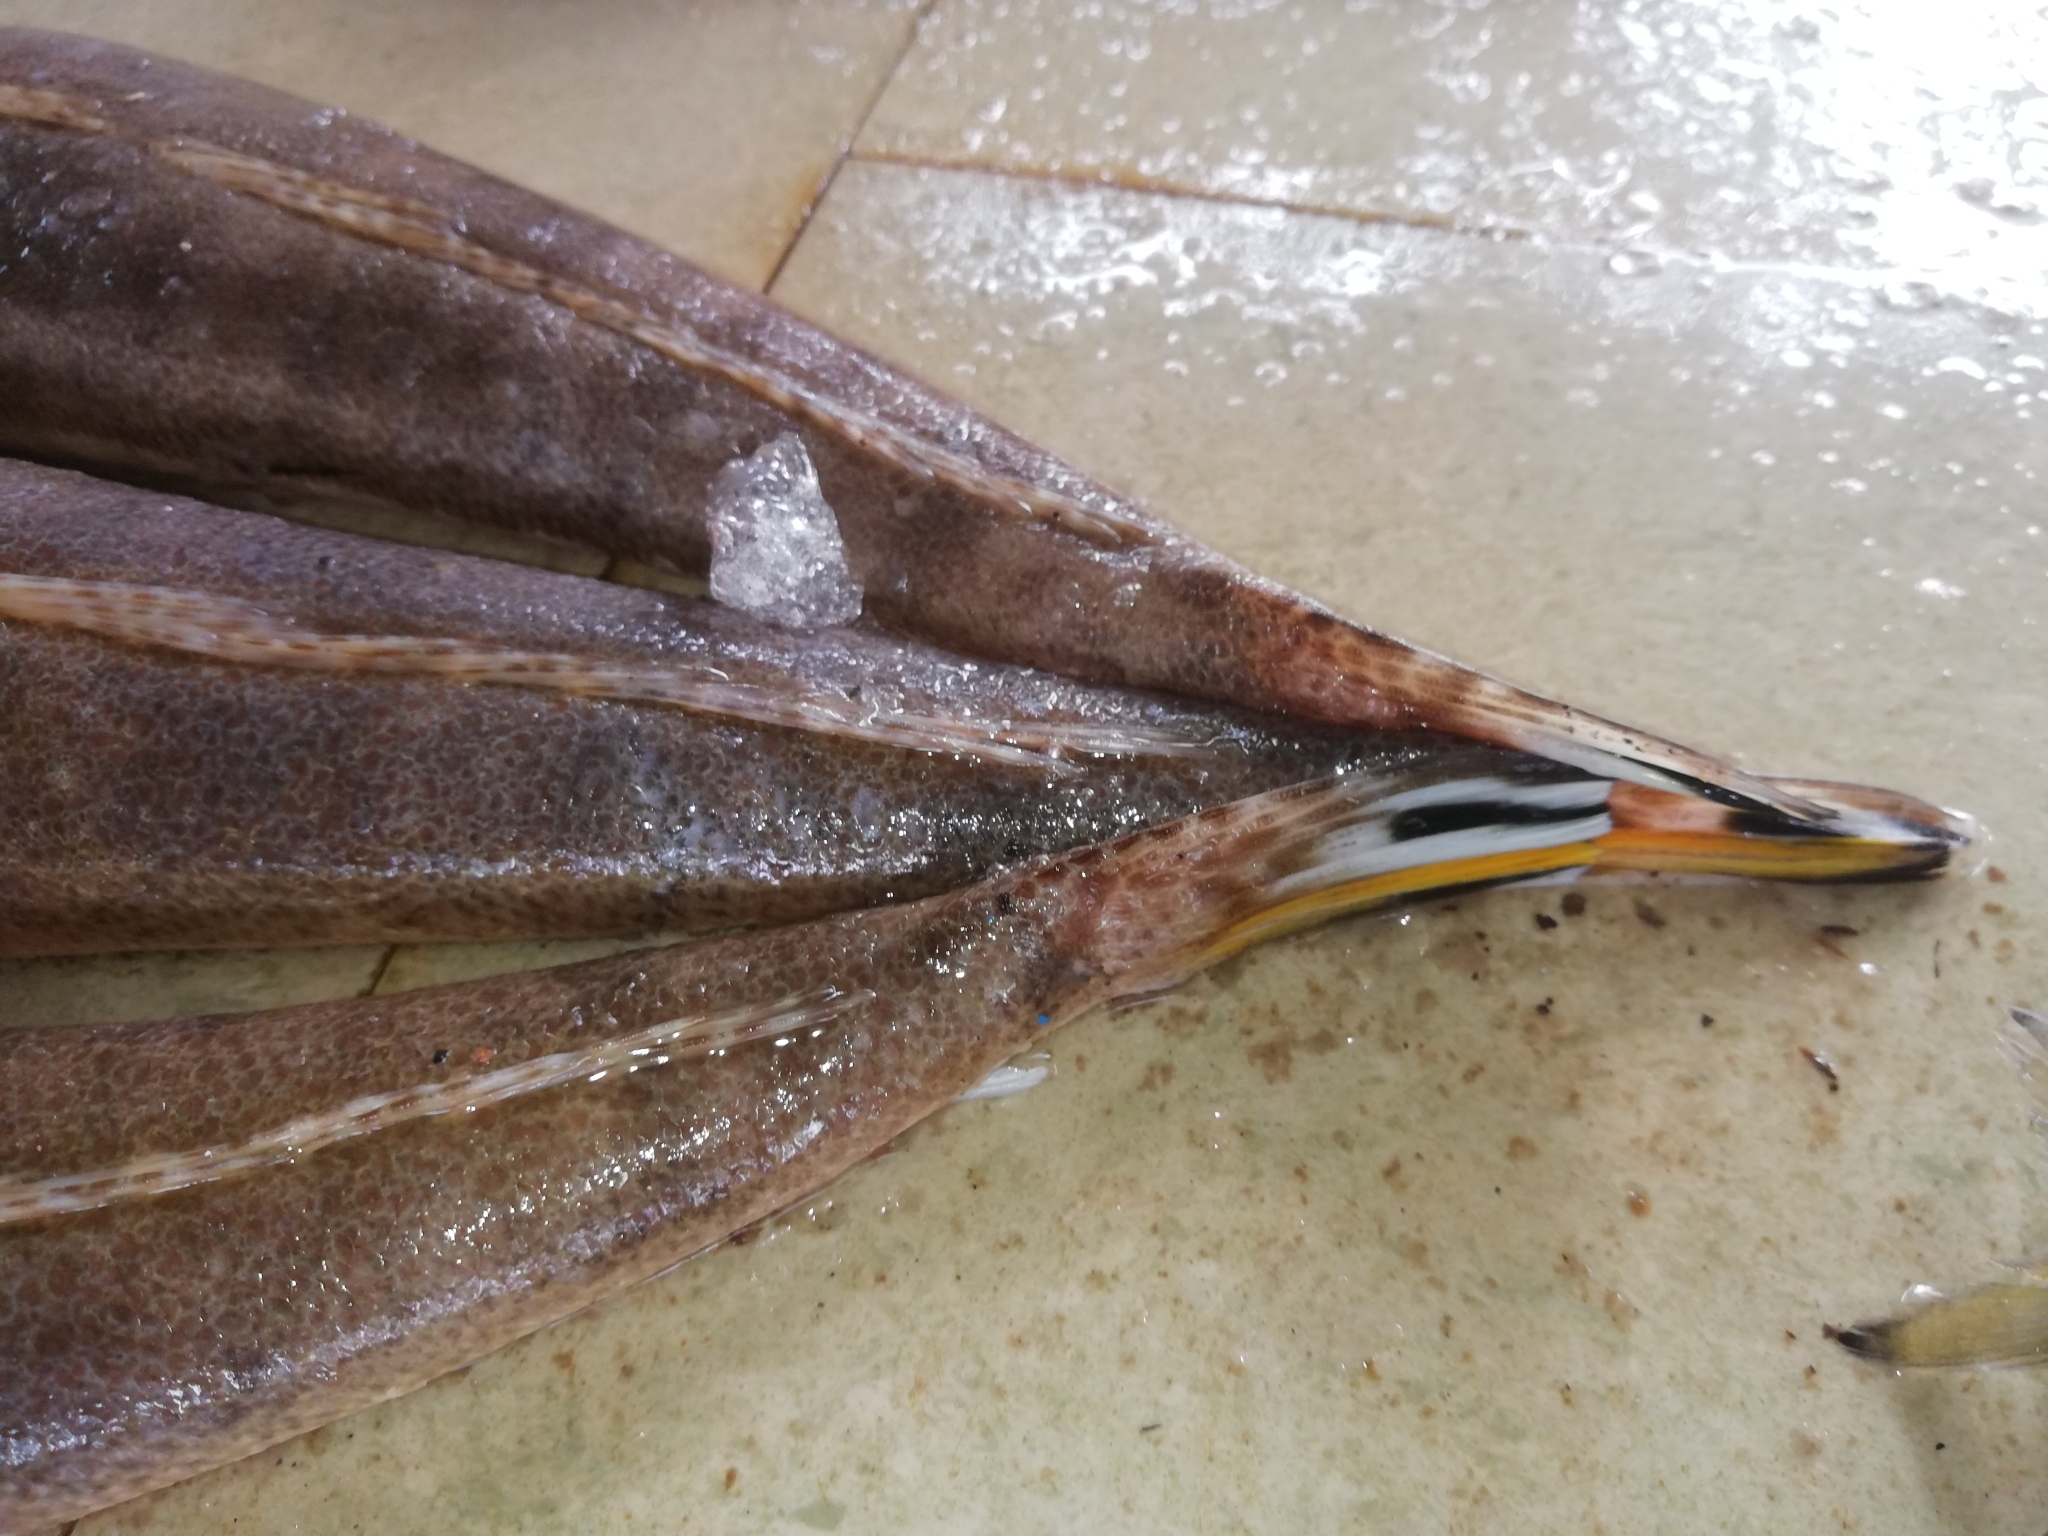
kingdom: Animalia
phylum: Chordata
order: Scorpaeniformes
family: Platycephalidae
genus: Platycephalus
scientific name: Platycephalus indicus
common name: Bartail flathead
